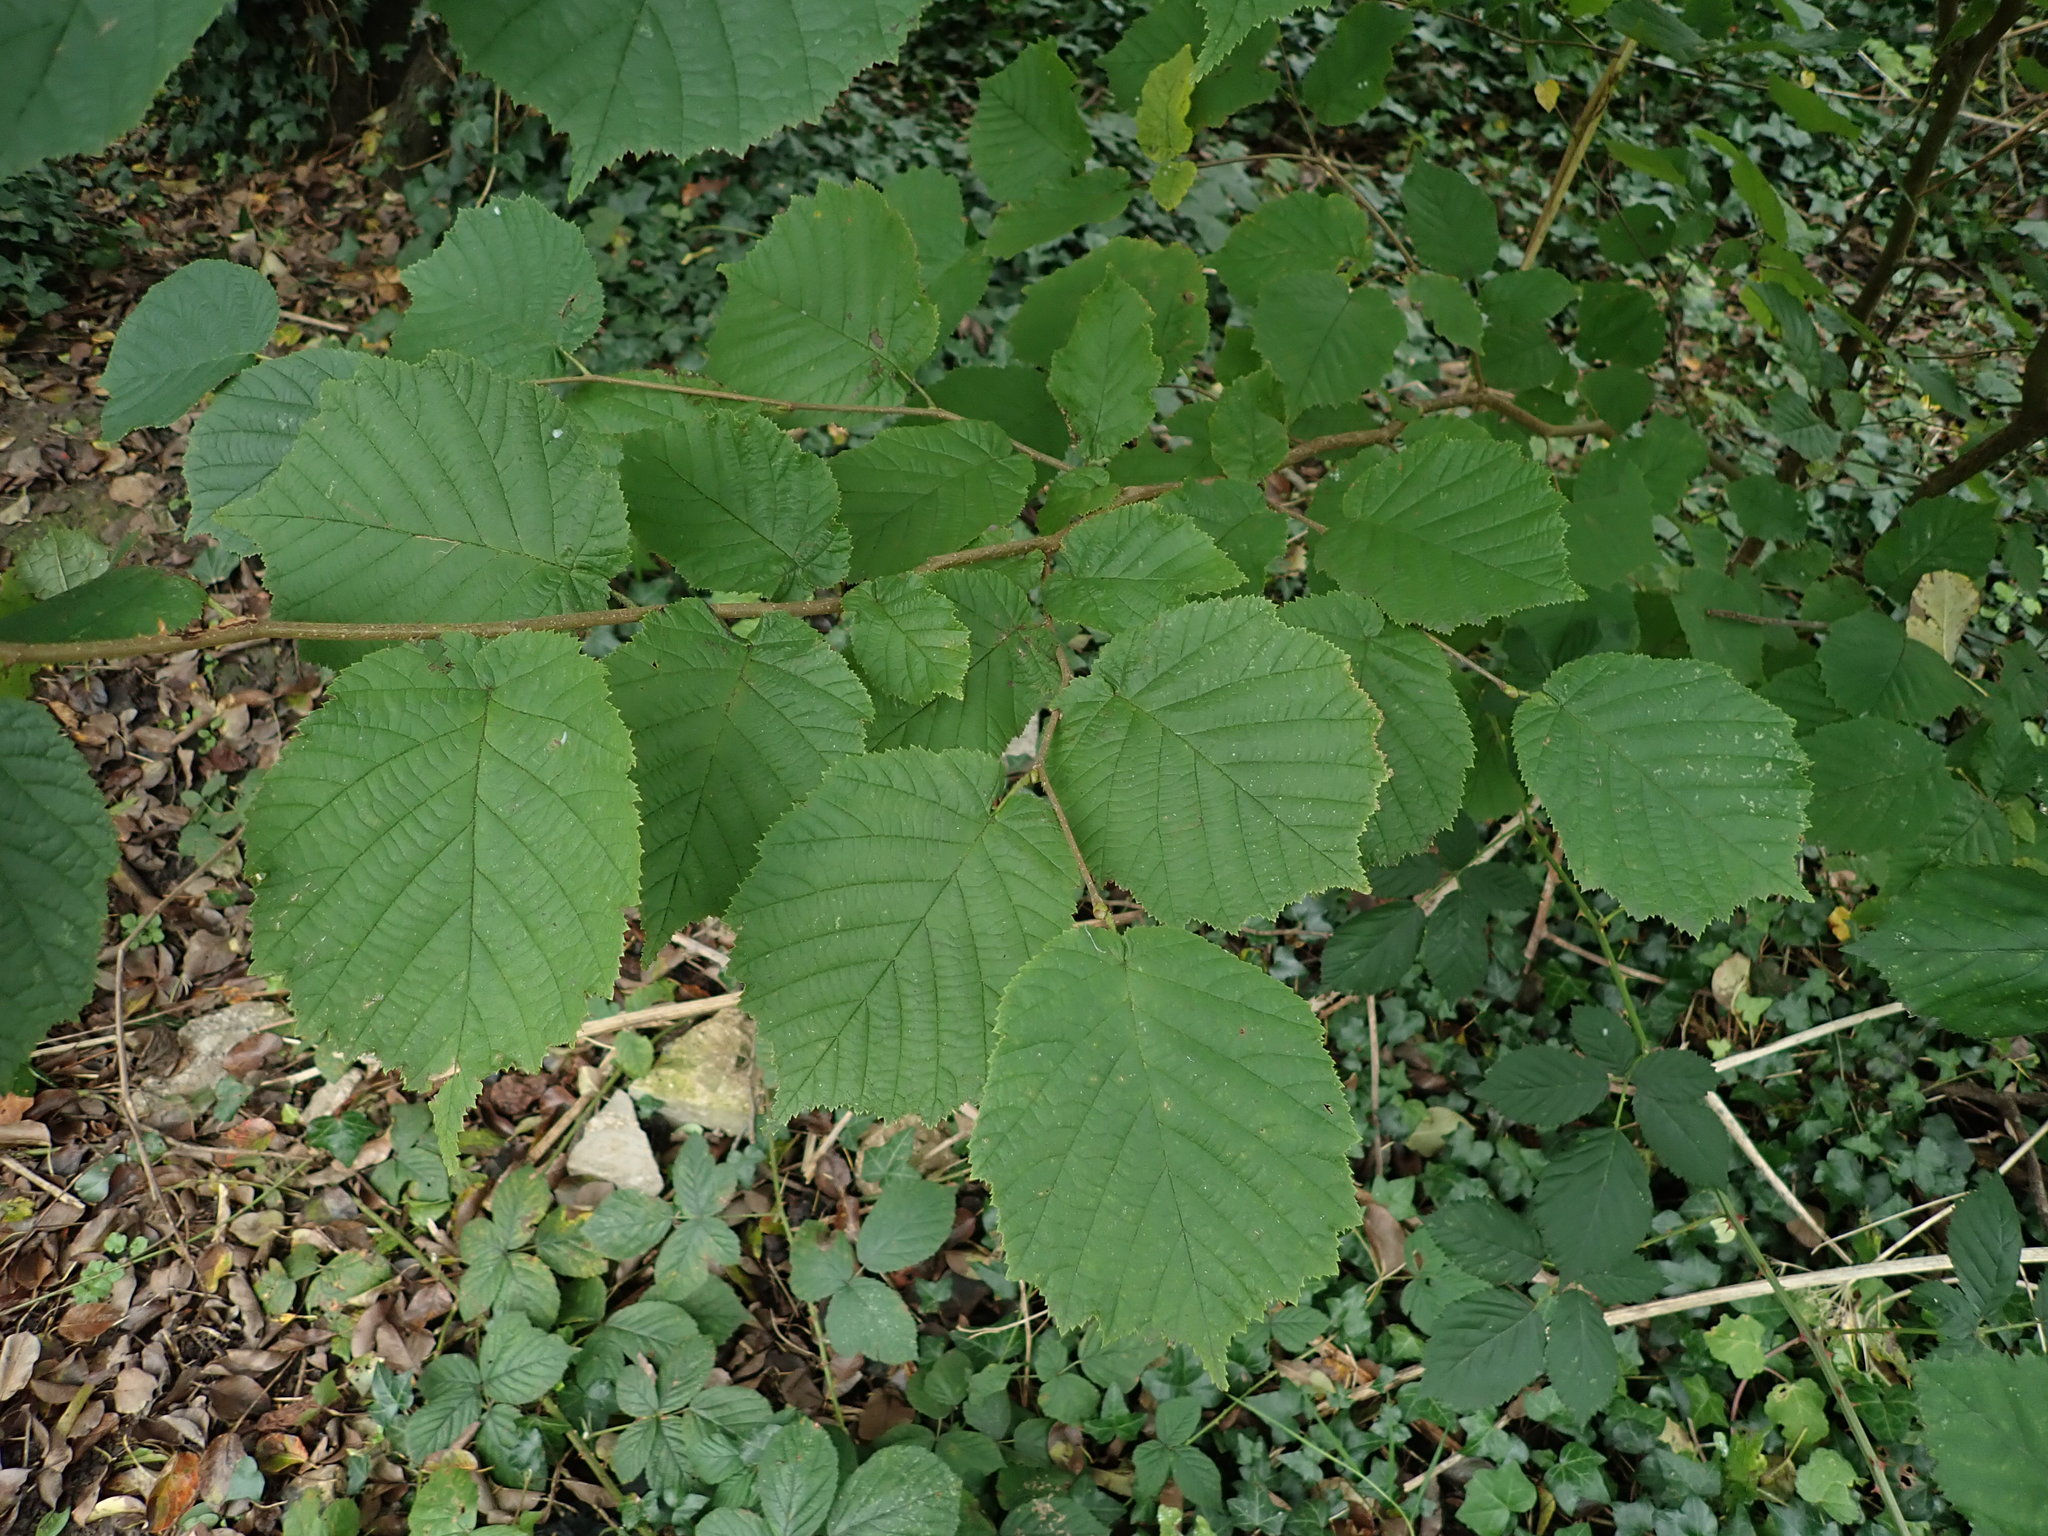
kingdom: Plantae
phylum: Tracheophyta
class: Magnoliopsida
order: Fagales
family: Betulaceae
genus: Corylus
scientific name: Corylus avellana
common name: European hazel
